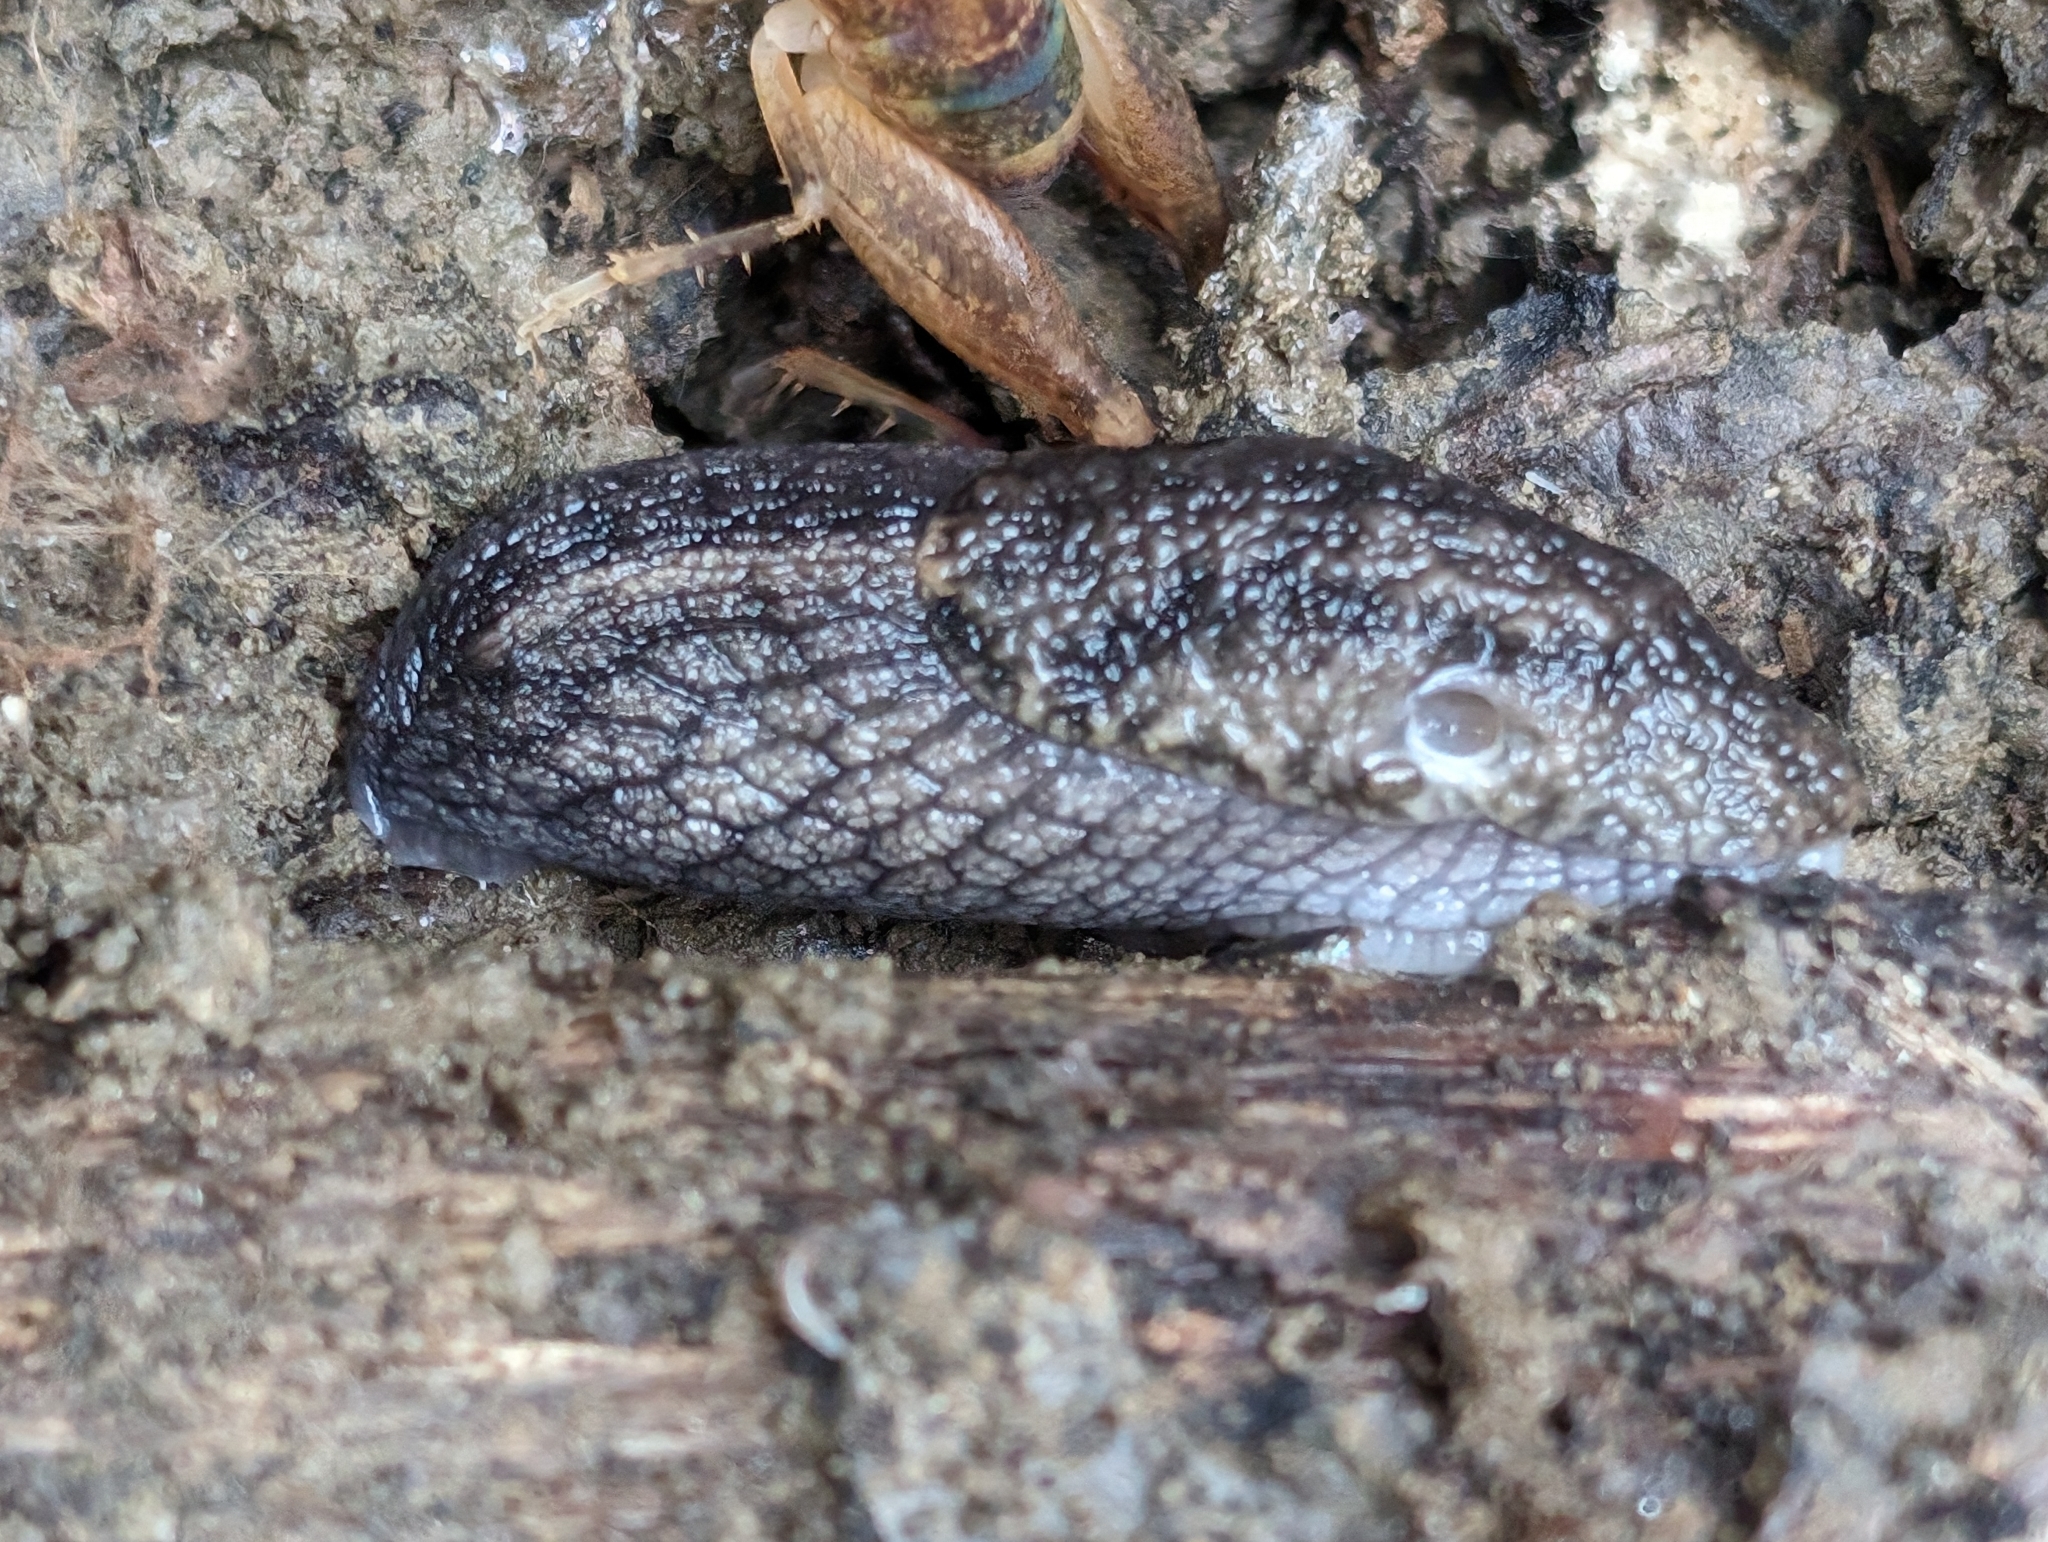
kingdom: Animalia
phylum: Mollusca
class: Gastropoda
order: Stylommatophora
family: Ariolimacidae
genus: Prophysaon
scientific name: Prophysaon andersonii
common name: Reticulate taildropper
